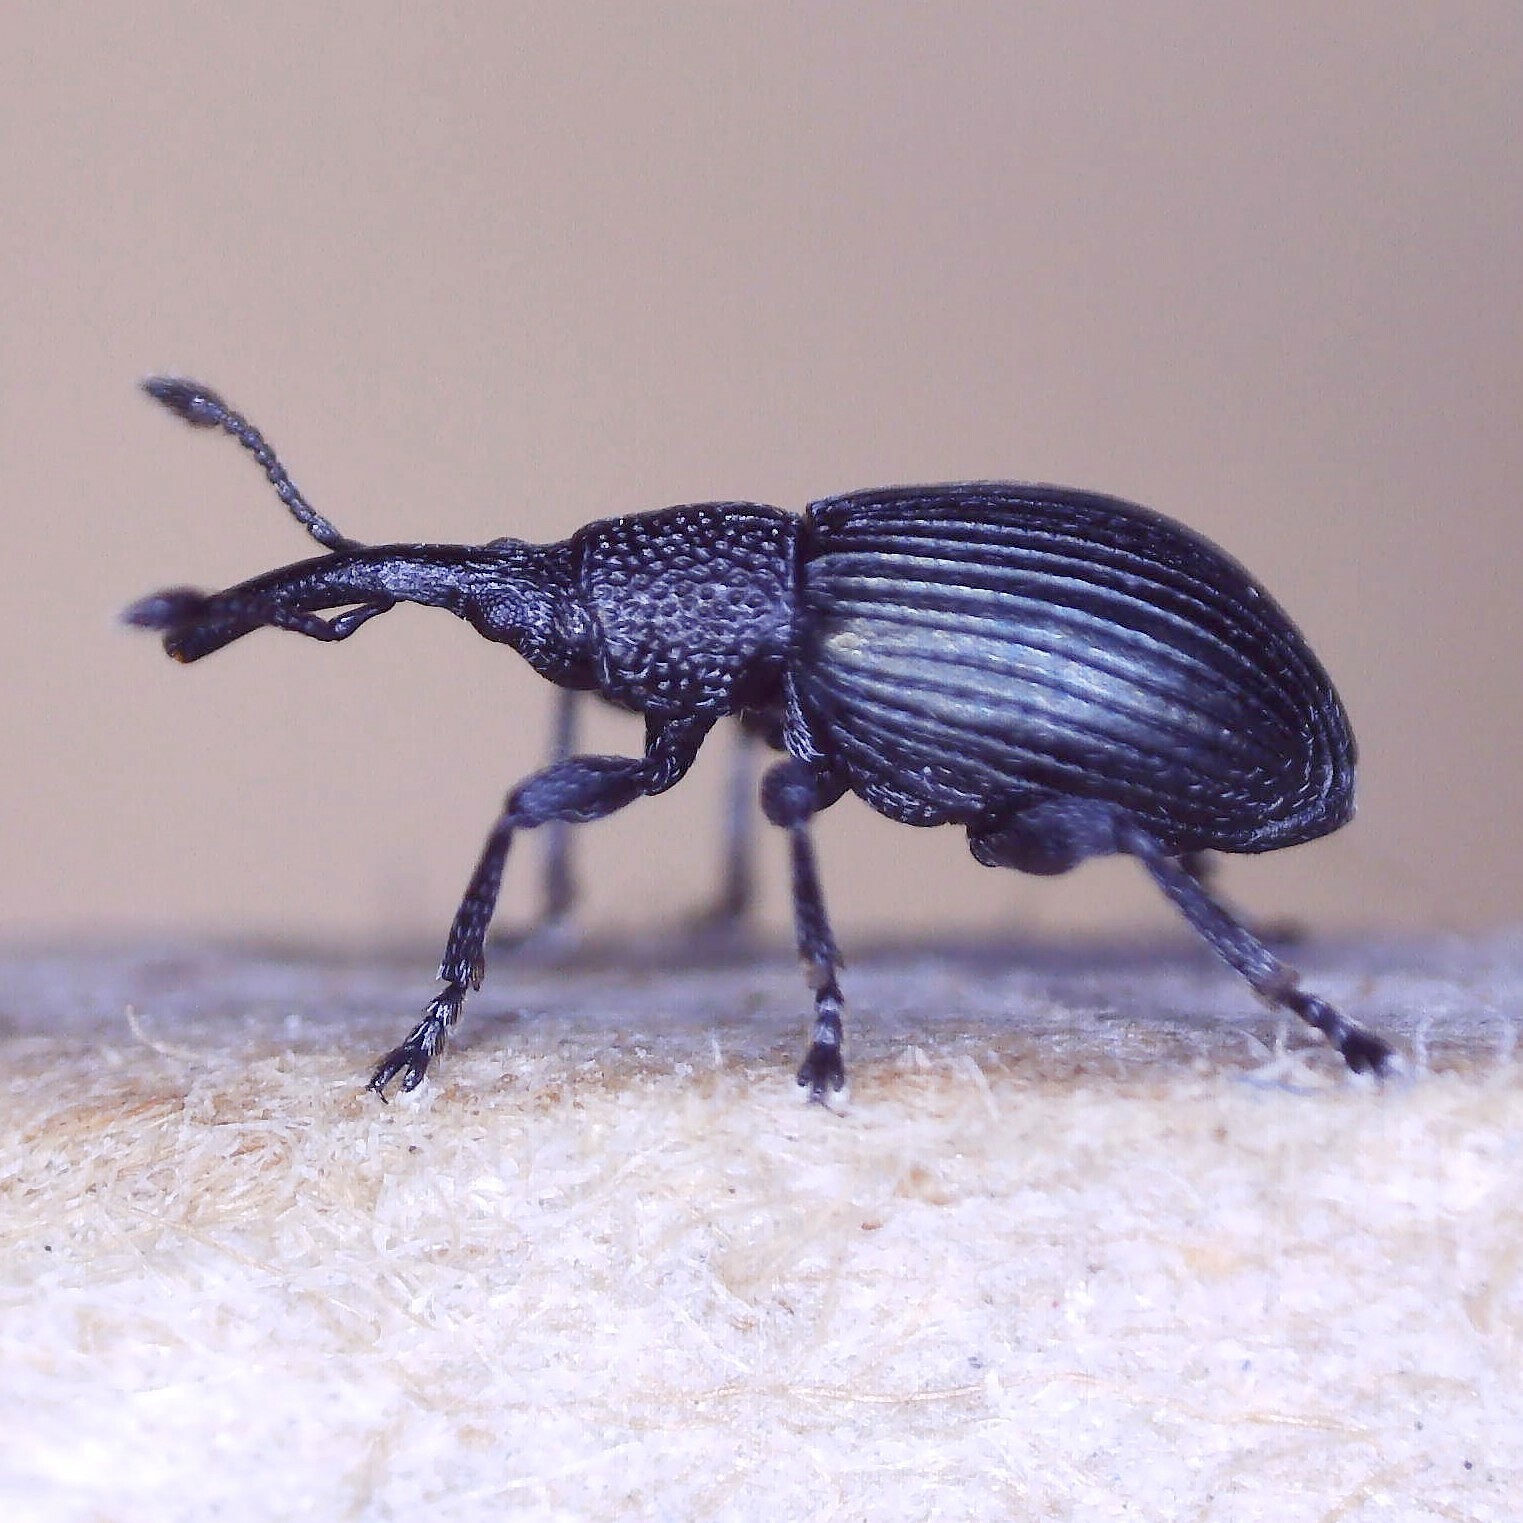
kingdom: Animalia
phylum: Arthropoda
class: Insecta
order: Coleoptera
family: Apionidae
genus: Ceratapion
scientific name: Ceratapion onopordi
